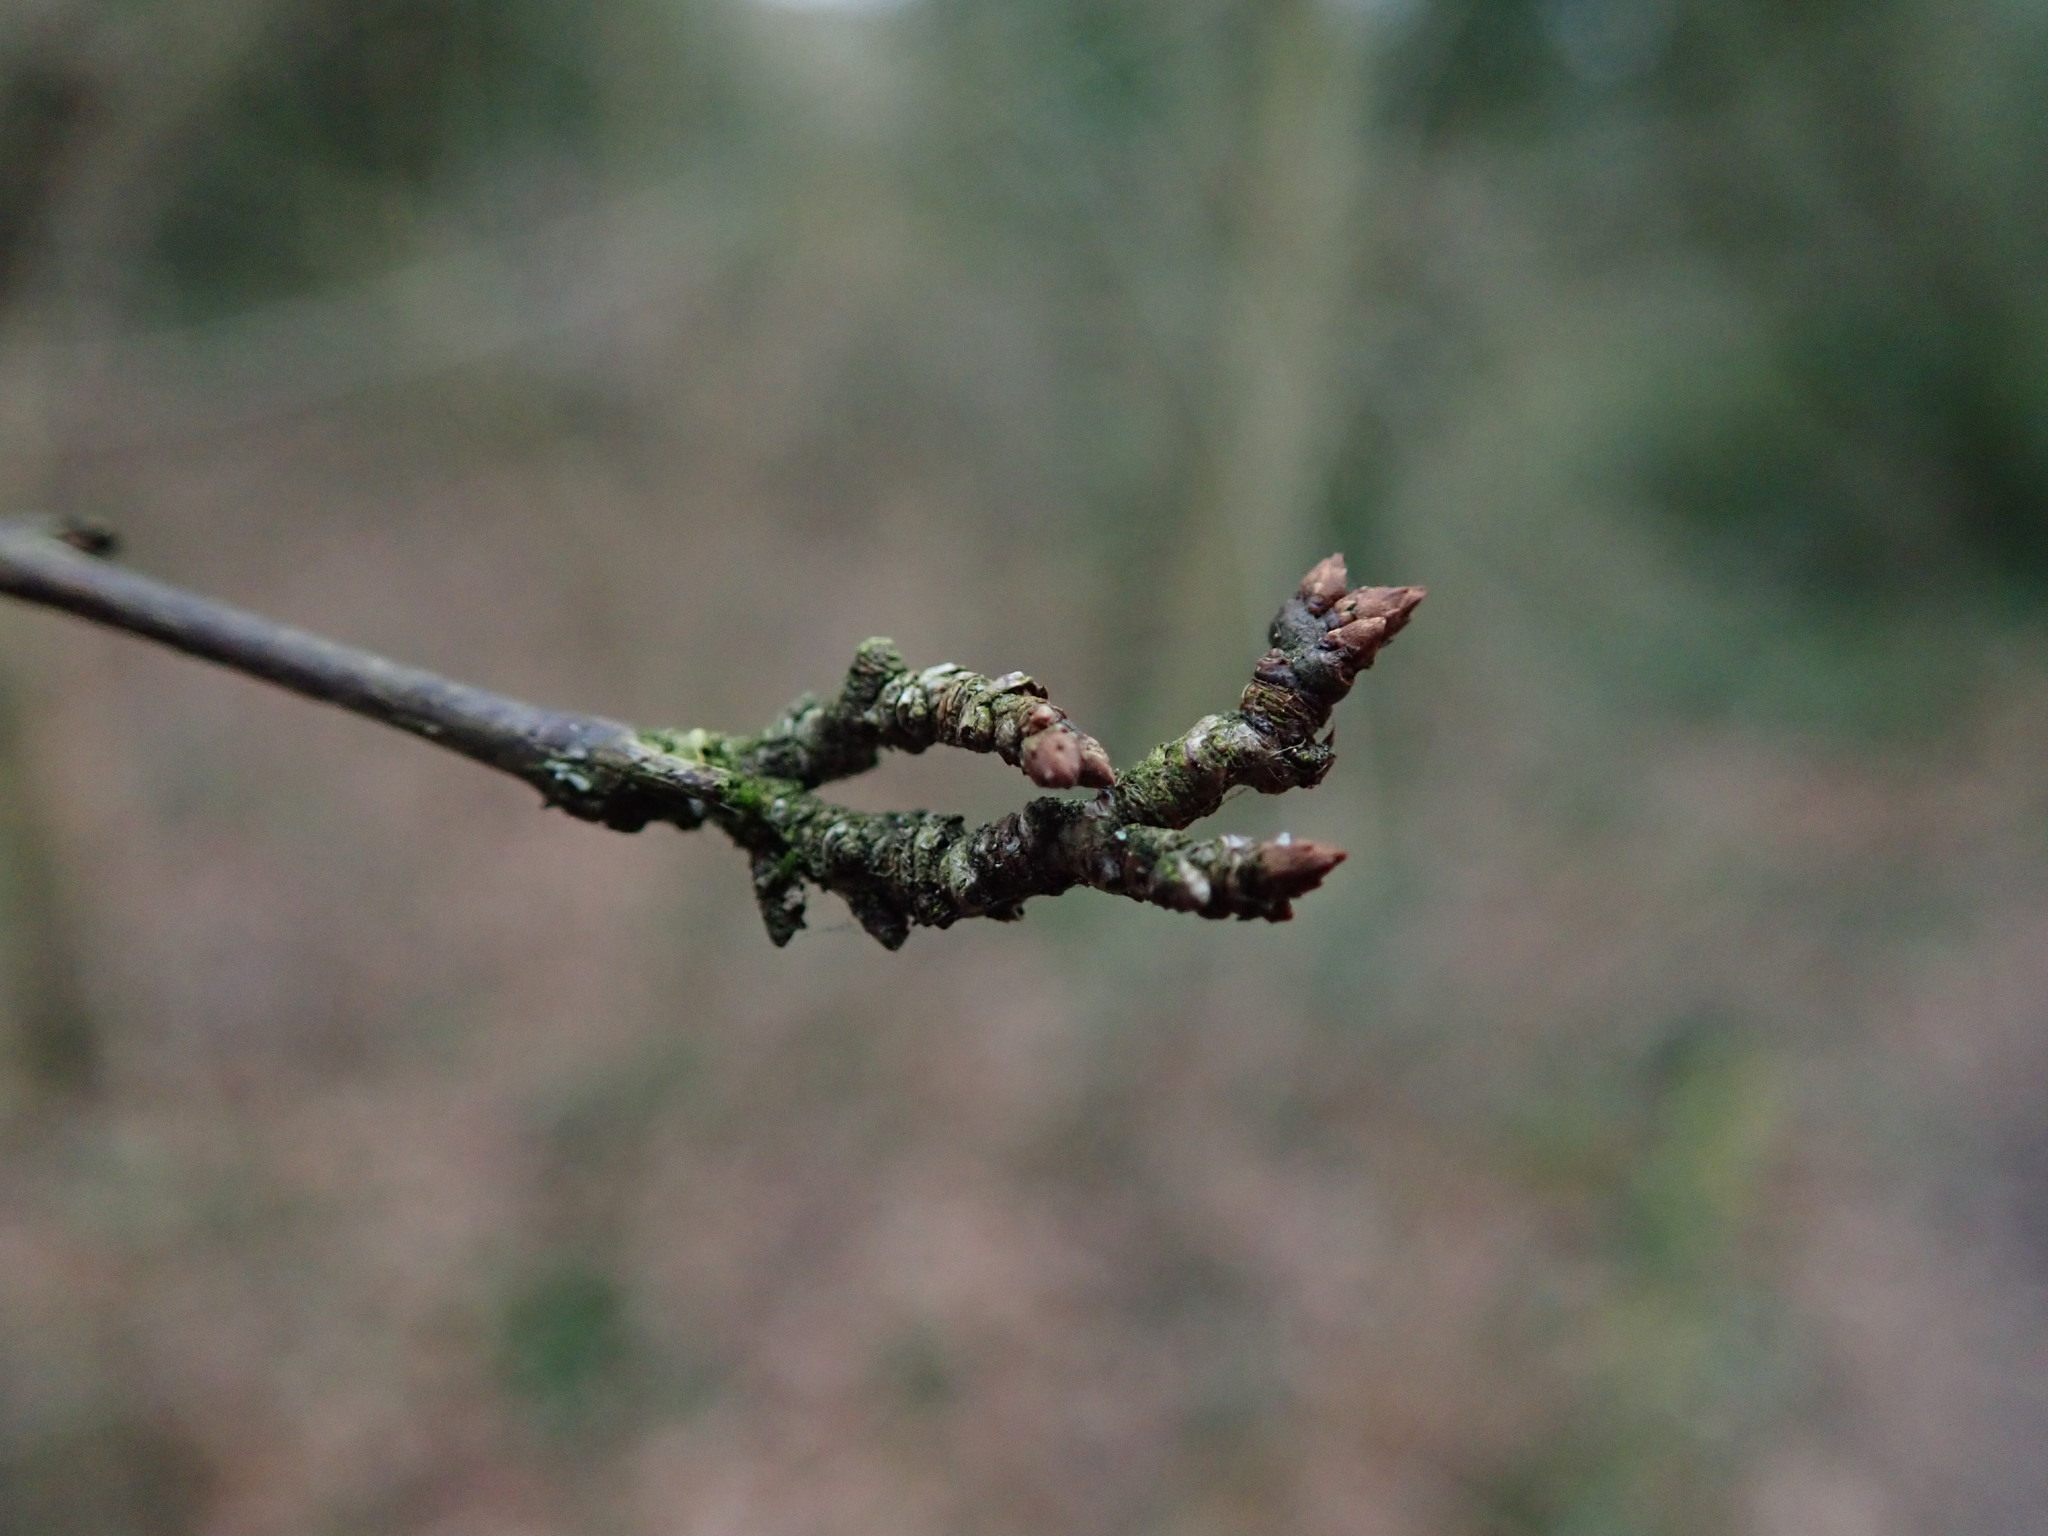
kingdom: Plantae
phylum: Tracheophyta
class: Magnoliopsida
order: Rosales
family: Rosaceae
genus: Prunus
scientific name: Prunus spinosa
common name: Blackthorn
